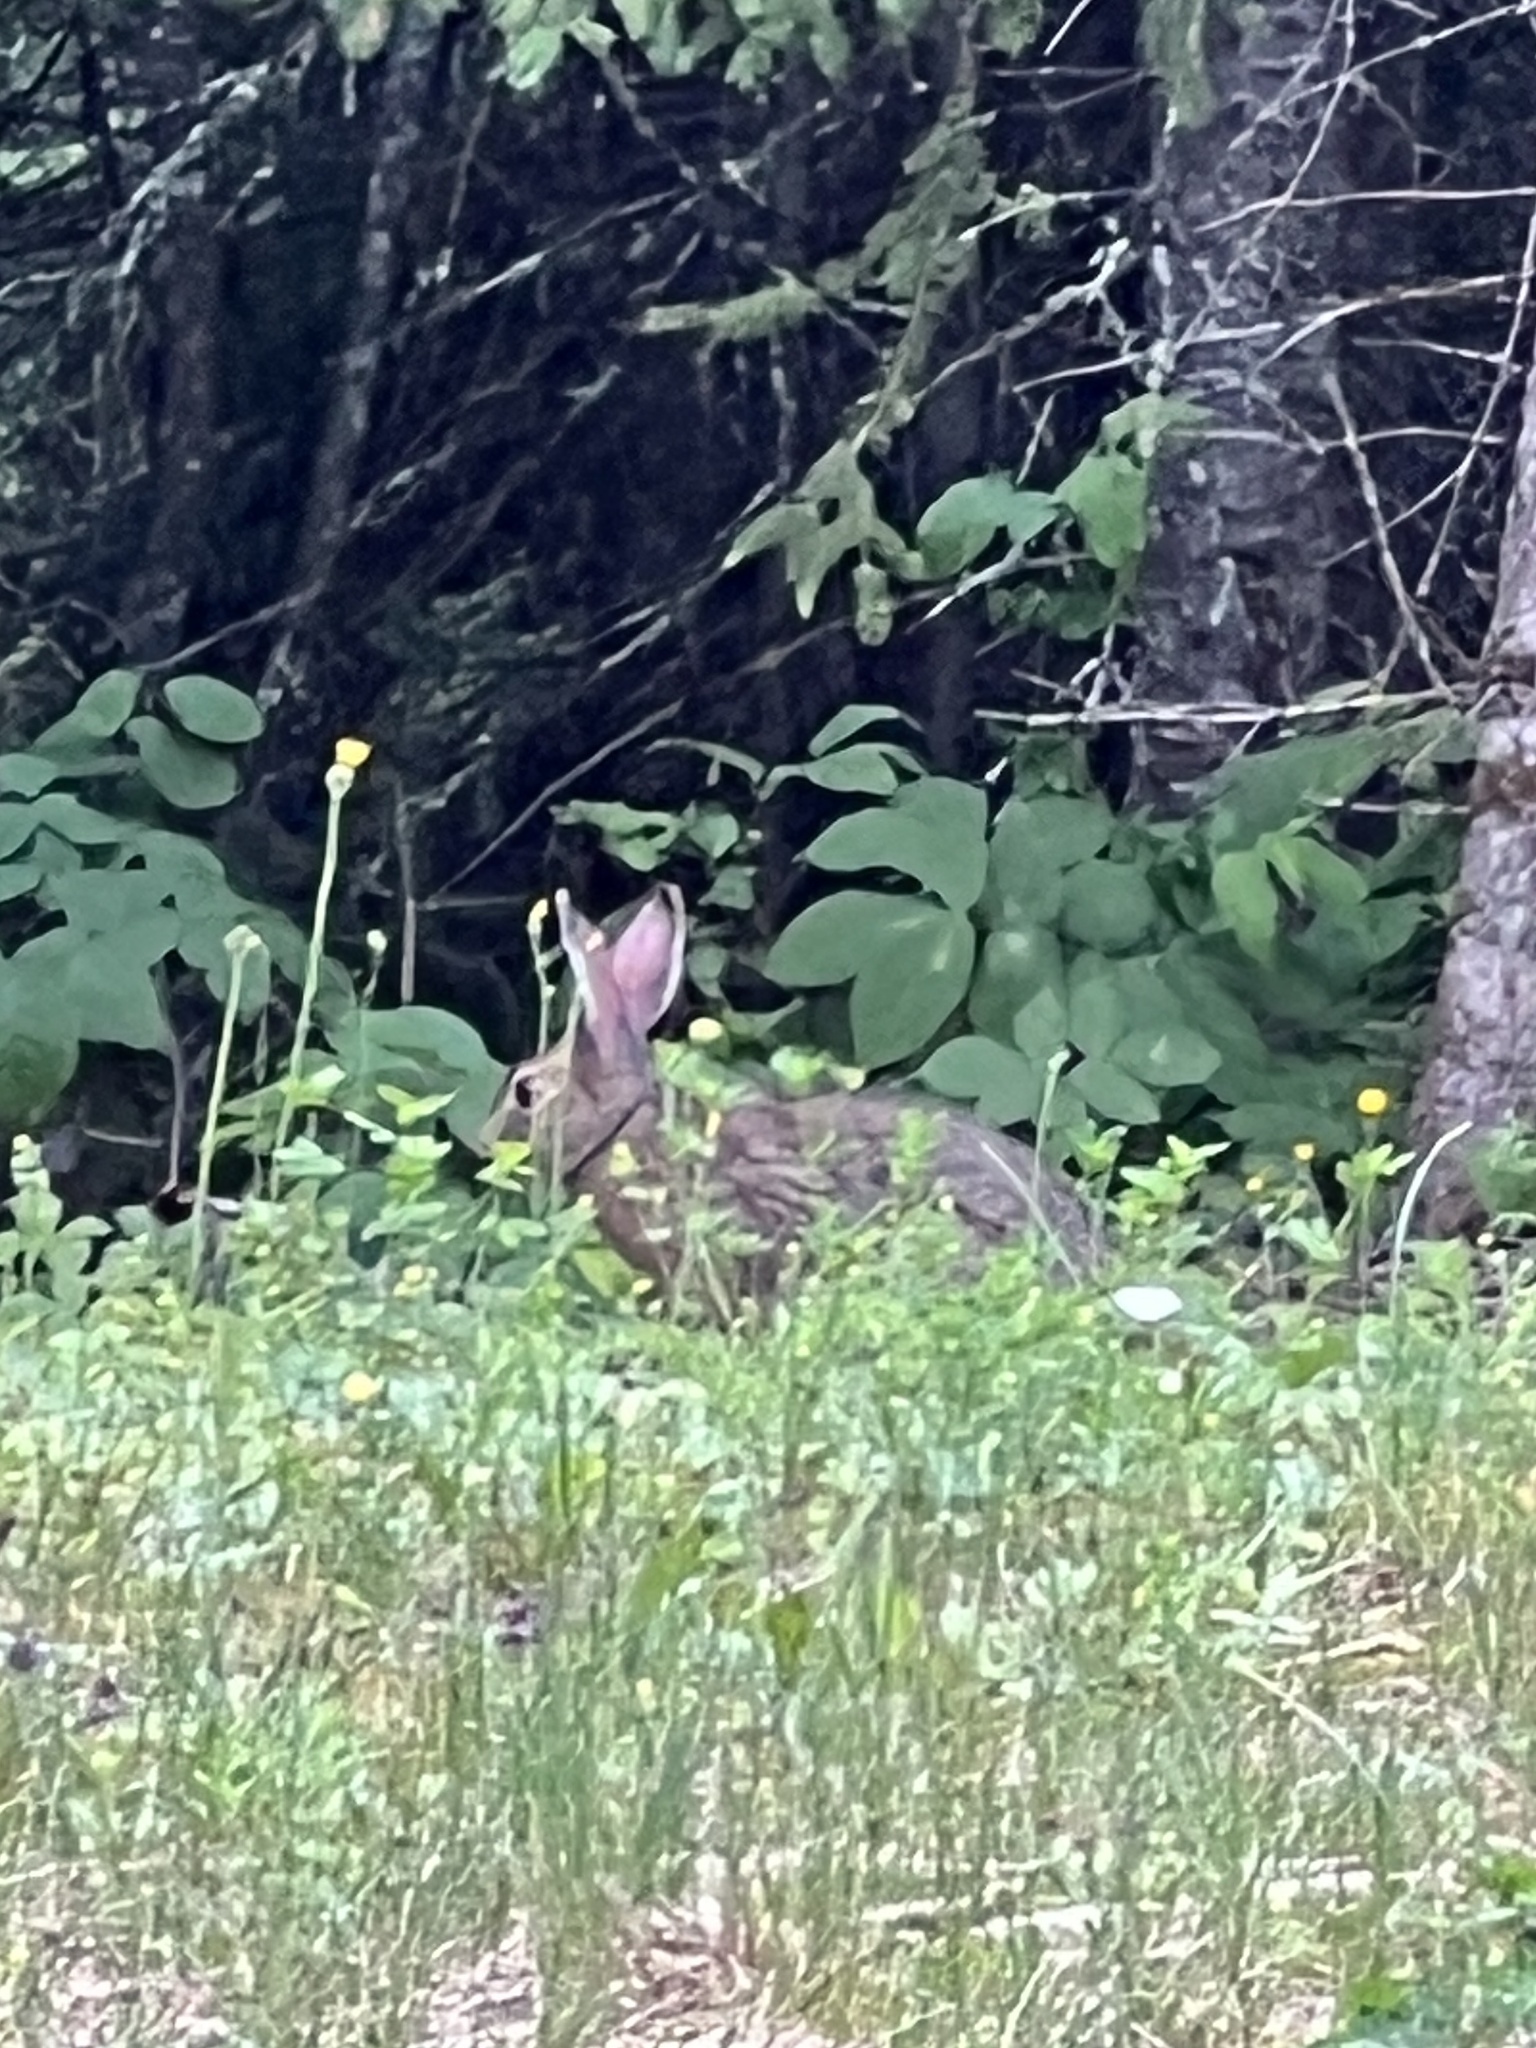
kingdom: Animalia
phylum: Chordata
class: Mammalia
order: Lagomorpha
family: Leporidae
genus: Lepus
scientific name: Lepus americanus
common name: Snowshoe hare
